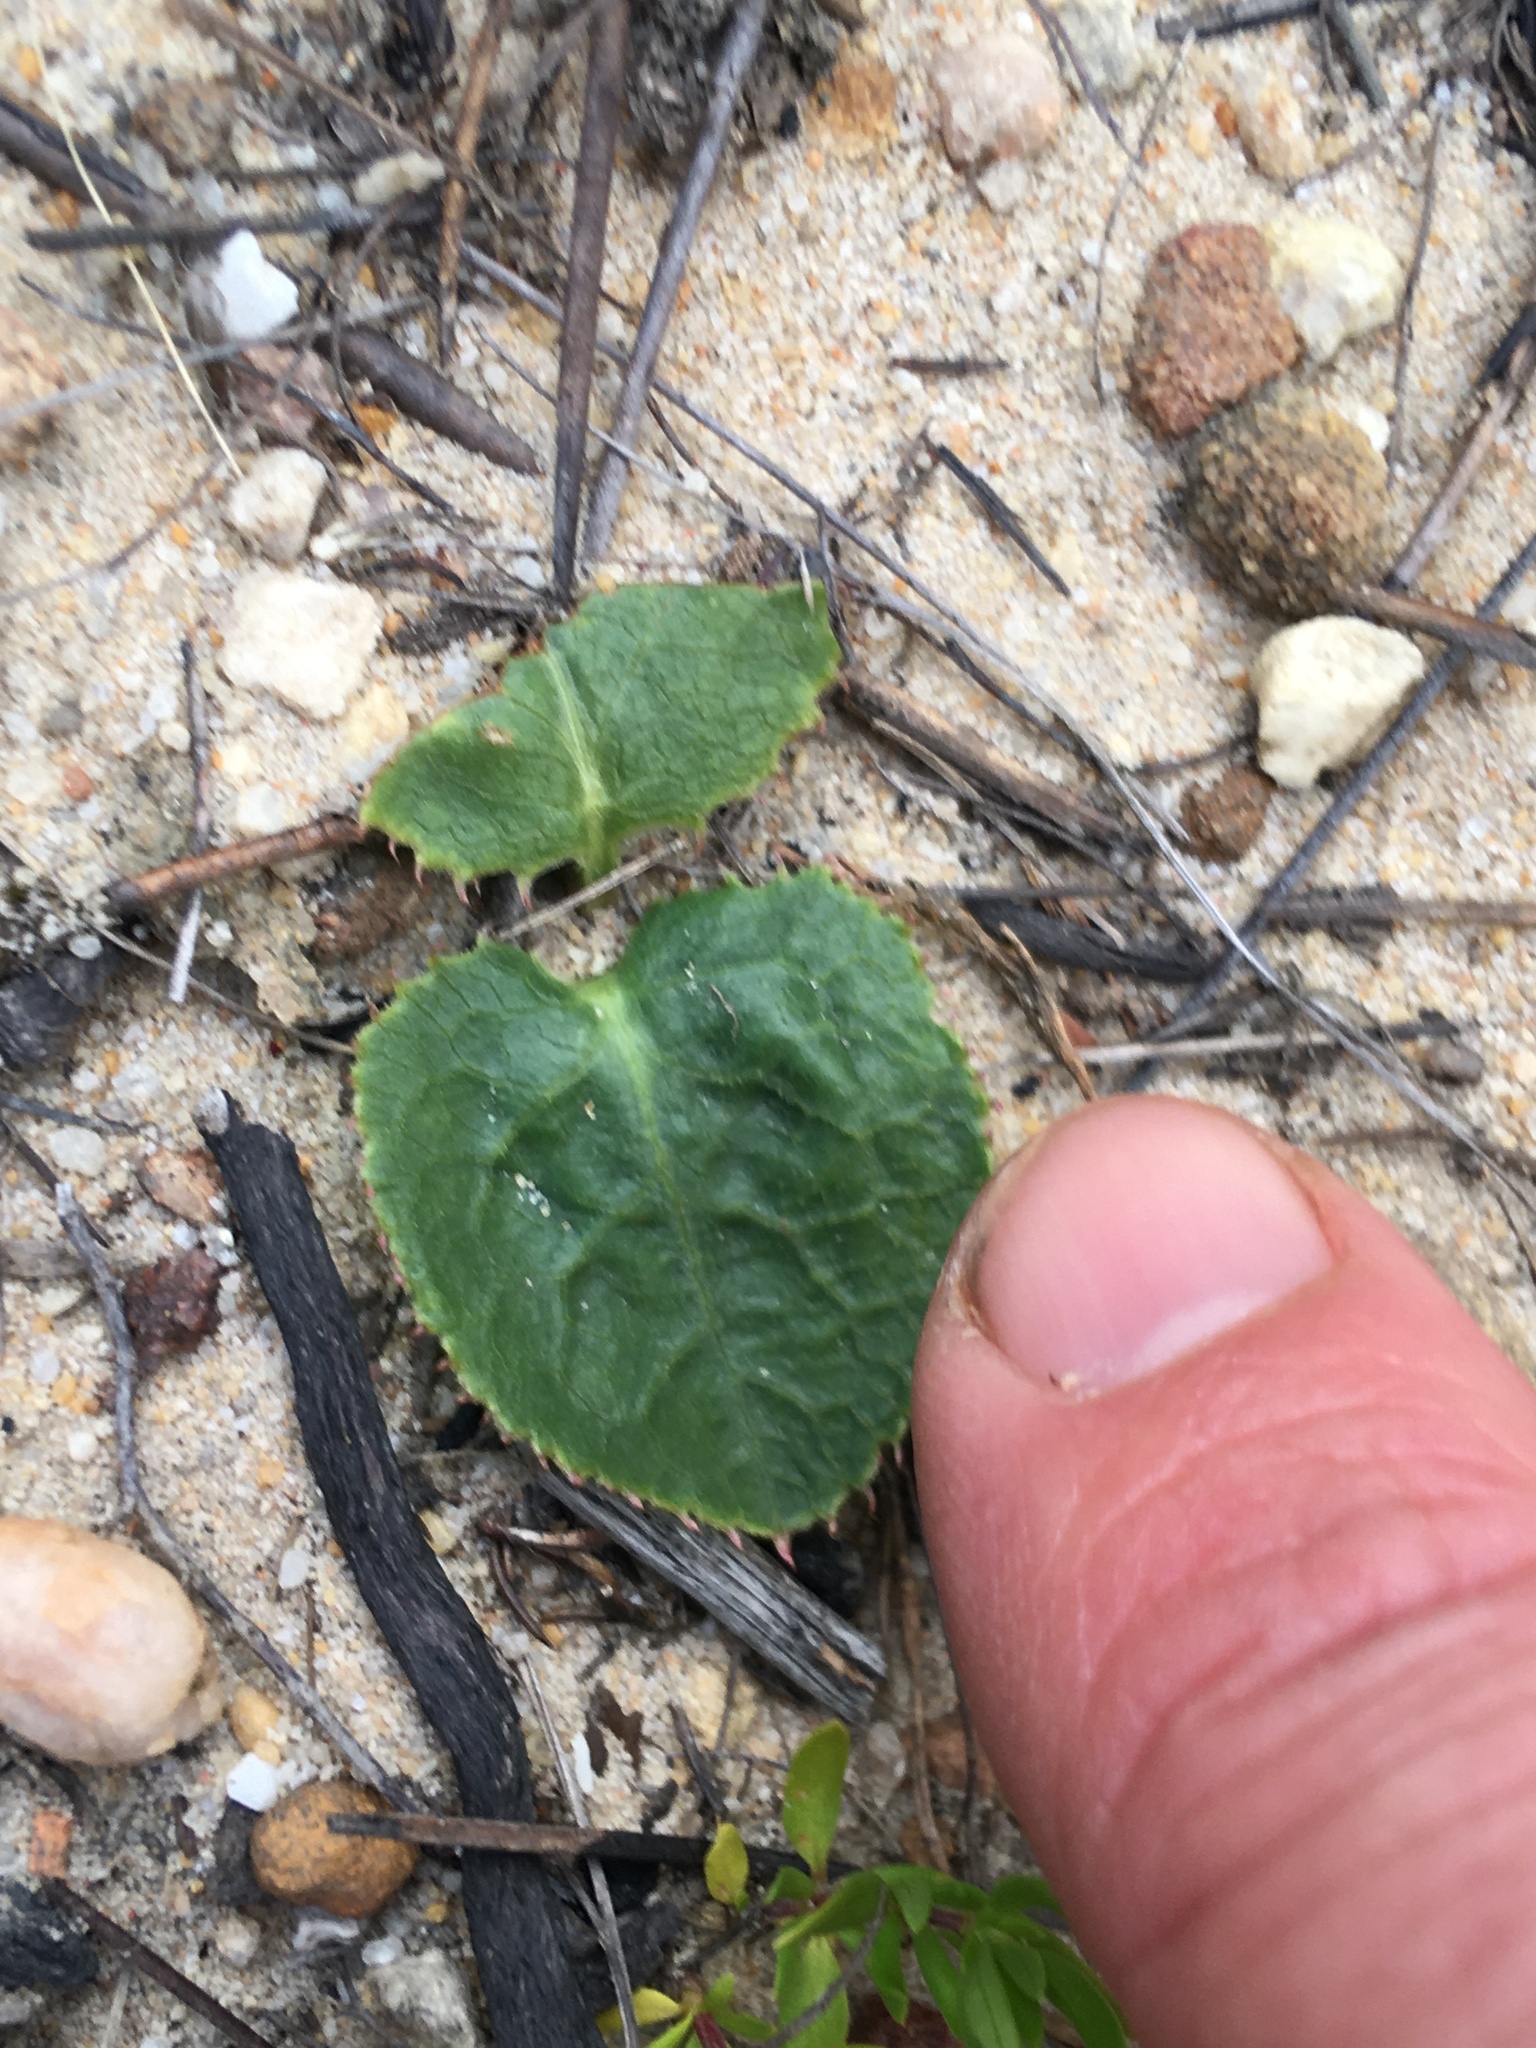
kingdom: Plantae
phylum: Tracheophyta
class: Magnoliopsida
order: Apiales
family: Apiaceae
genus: Lichtensteinia
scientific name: Lichtensteinia trifida
